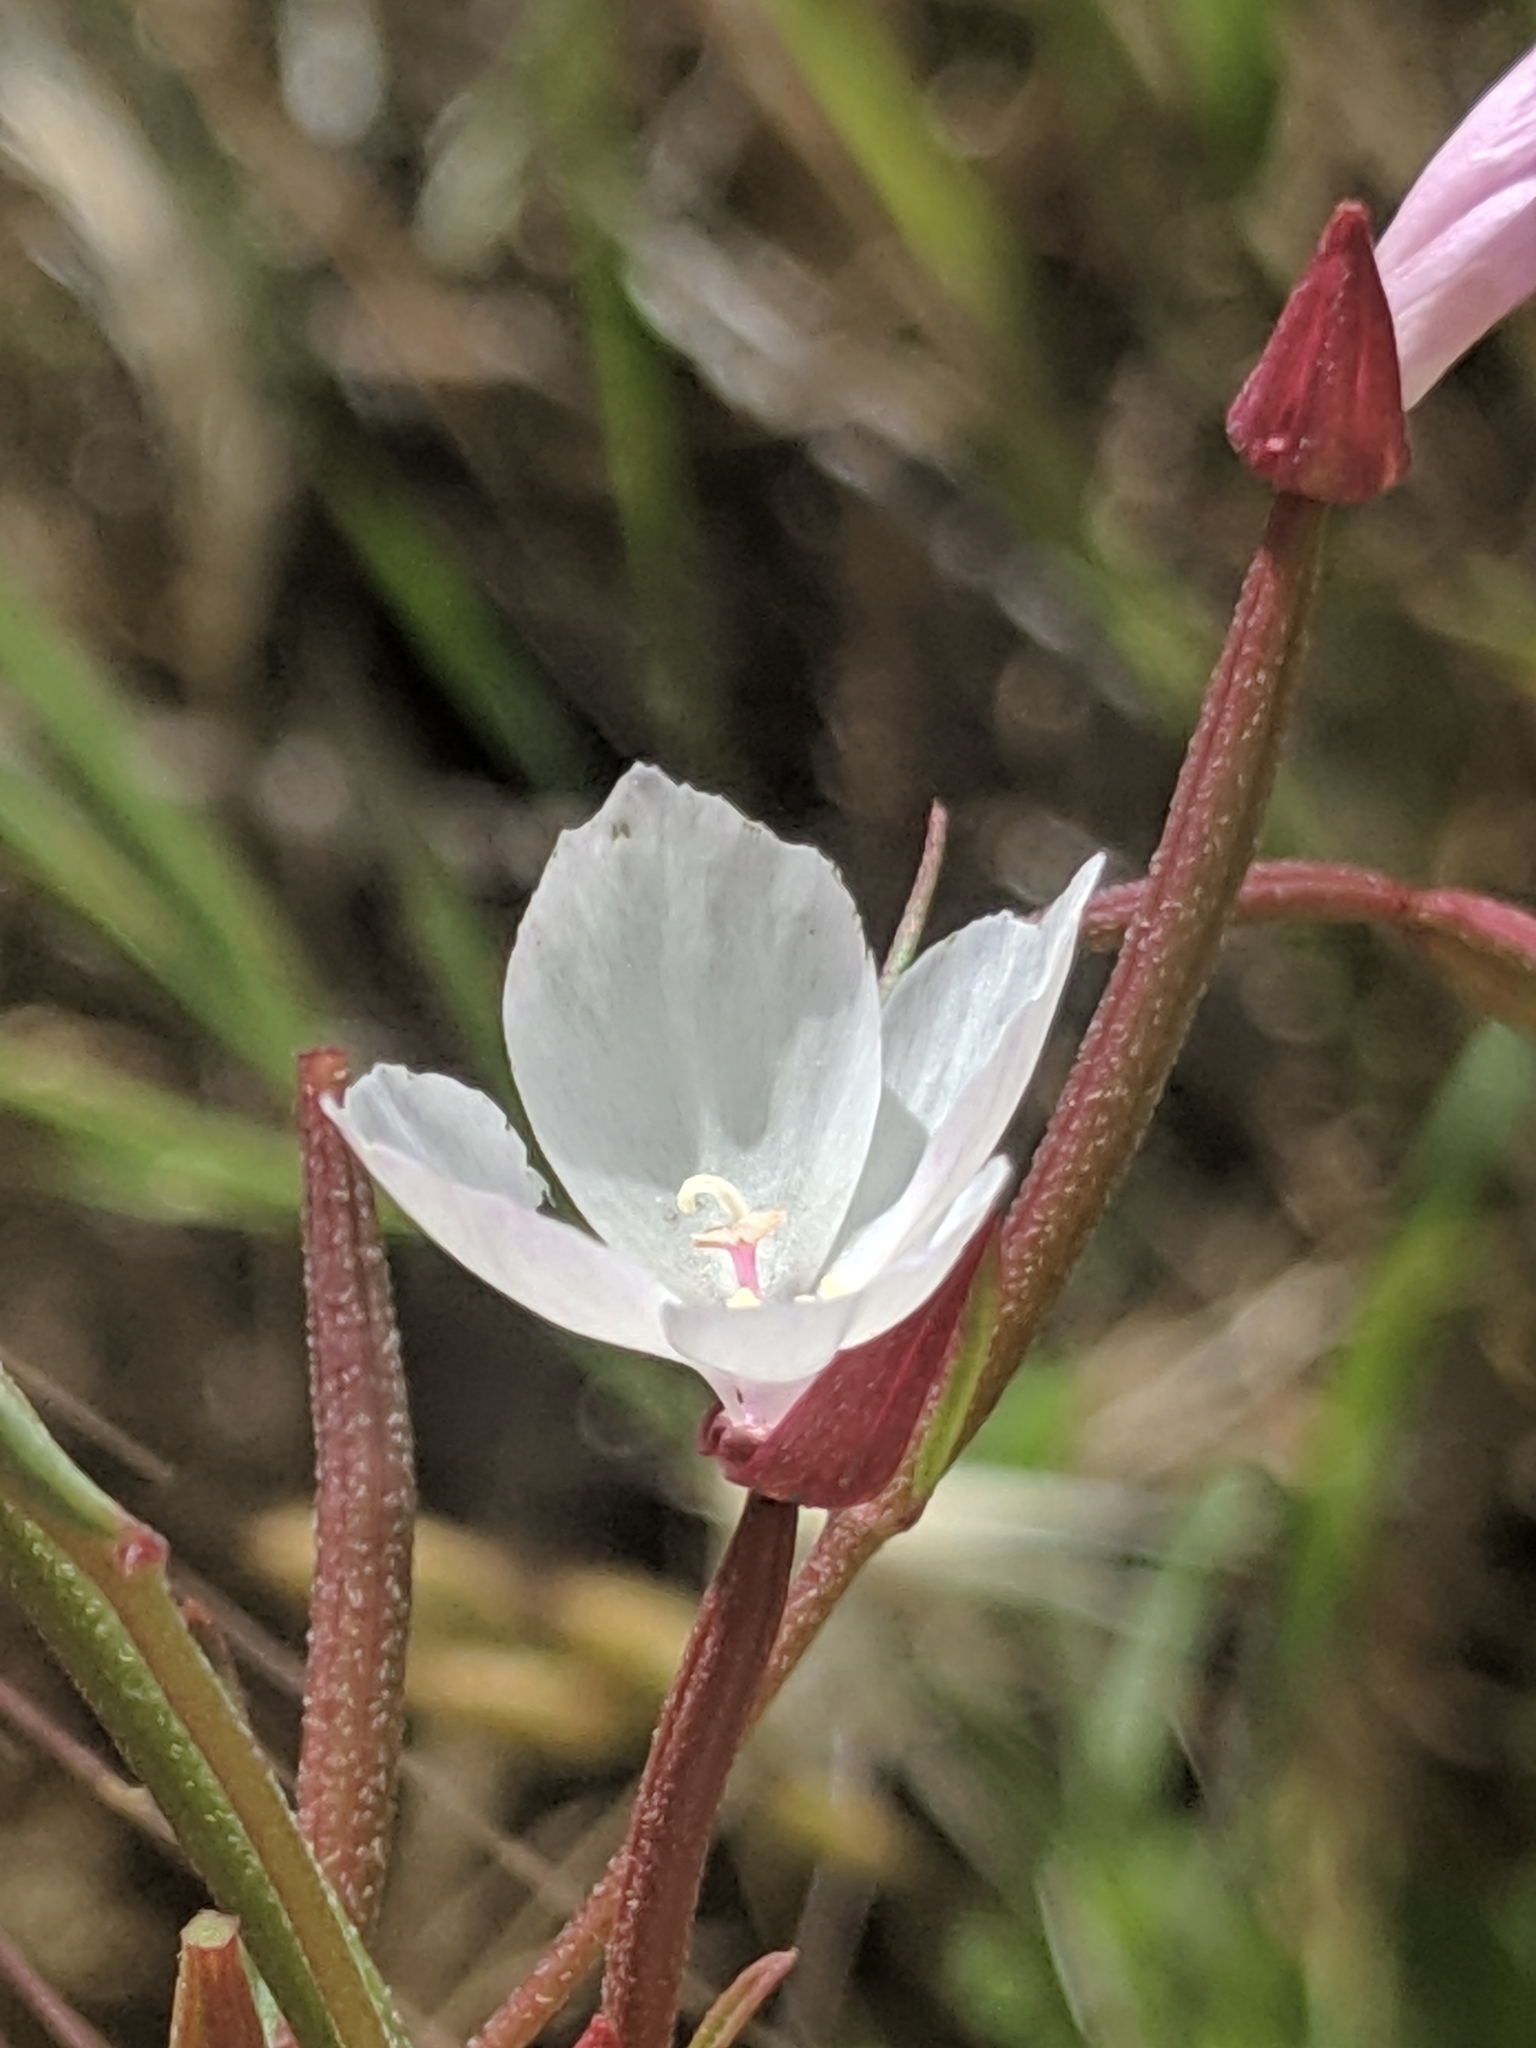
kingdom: Plantae
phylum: Tracheophyta
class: Magnoliopsida
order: Myrtales
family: Onagraceae
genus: Clarkia
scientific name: Clarkia epilobioides
